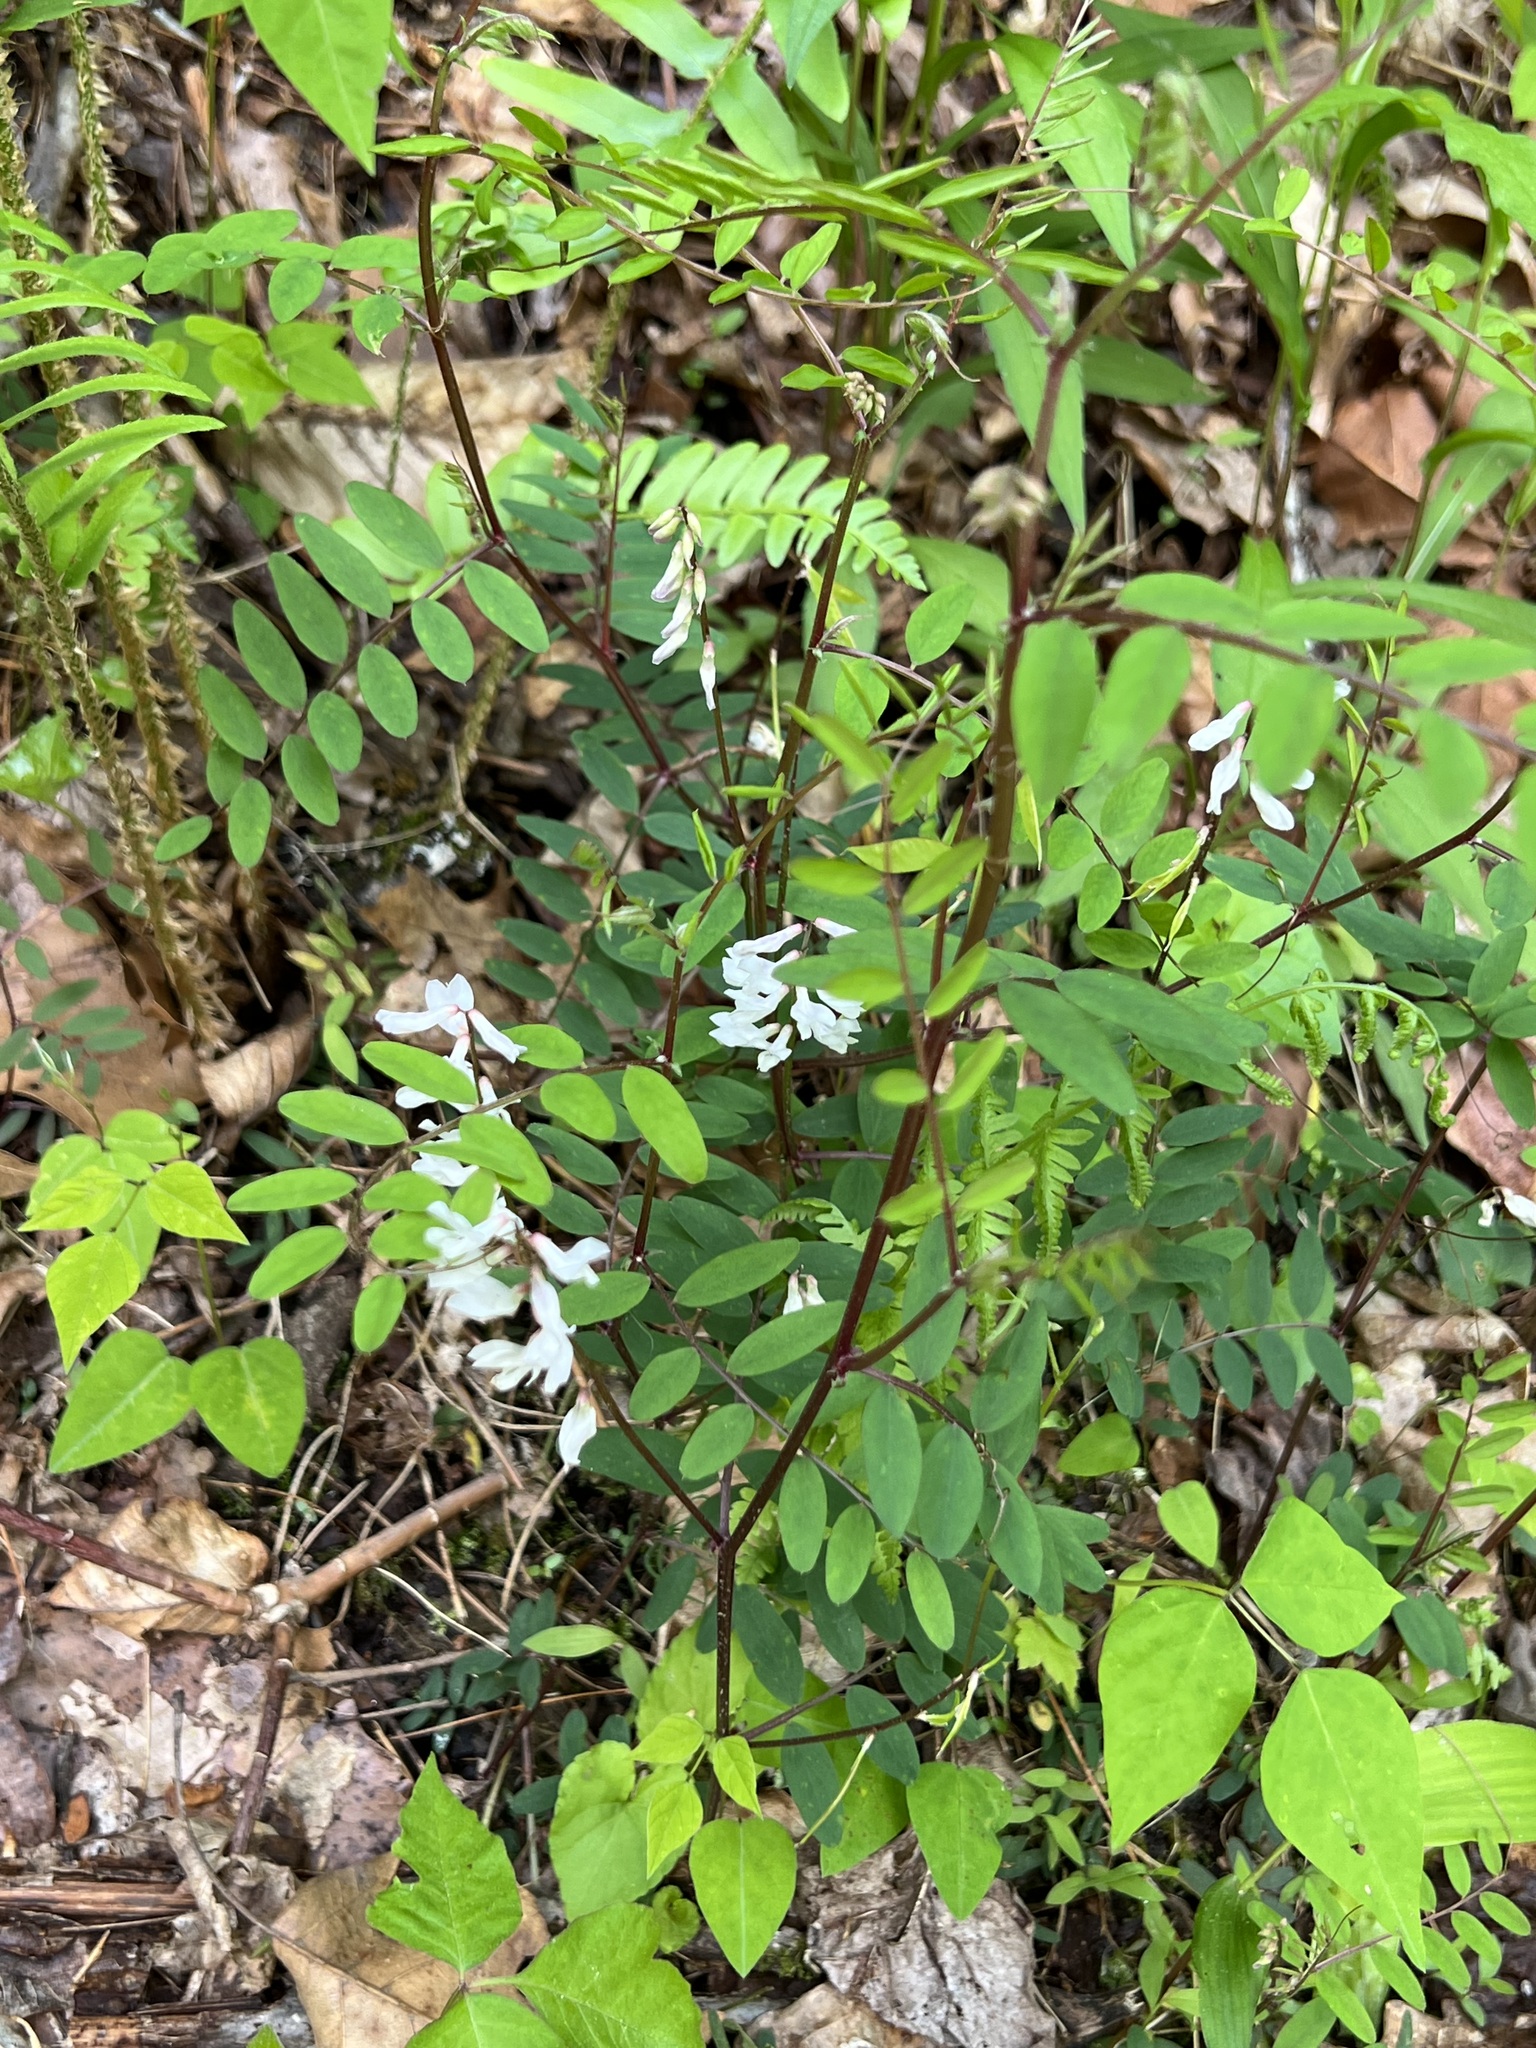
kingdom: Plantae
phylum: Tracheophyta
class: Magnoliopsida
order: Fabales
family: Fabaceae
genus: Vicia
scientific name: Vicia caroliniana
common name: Carolina vetch
